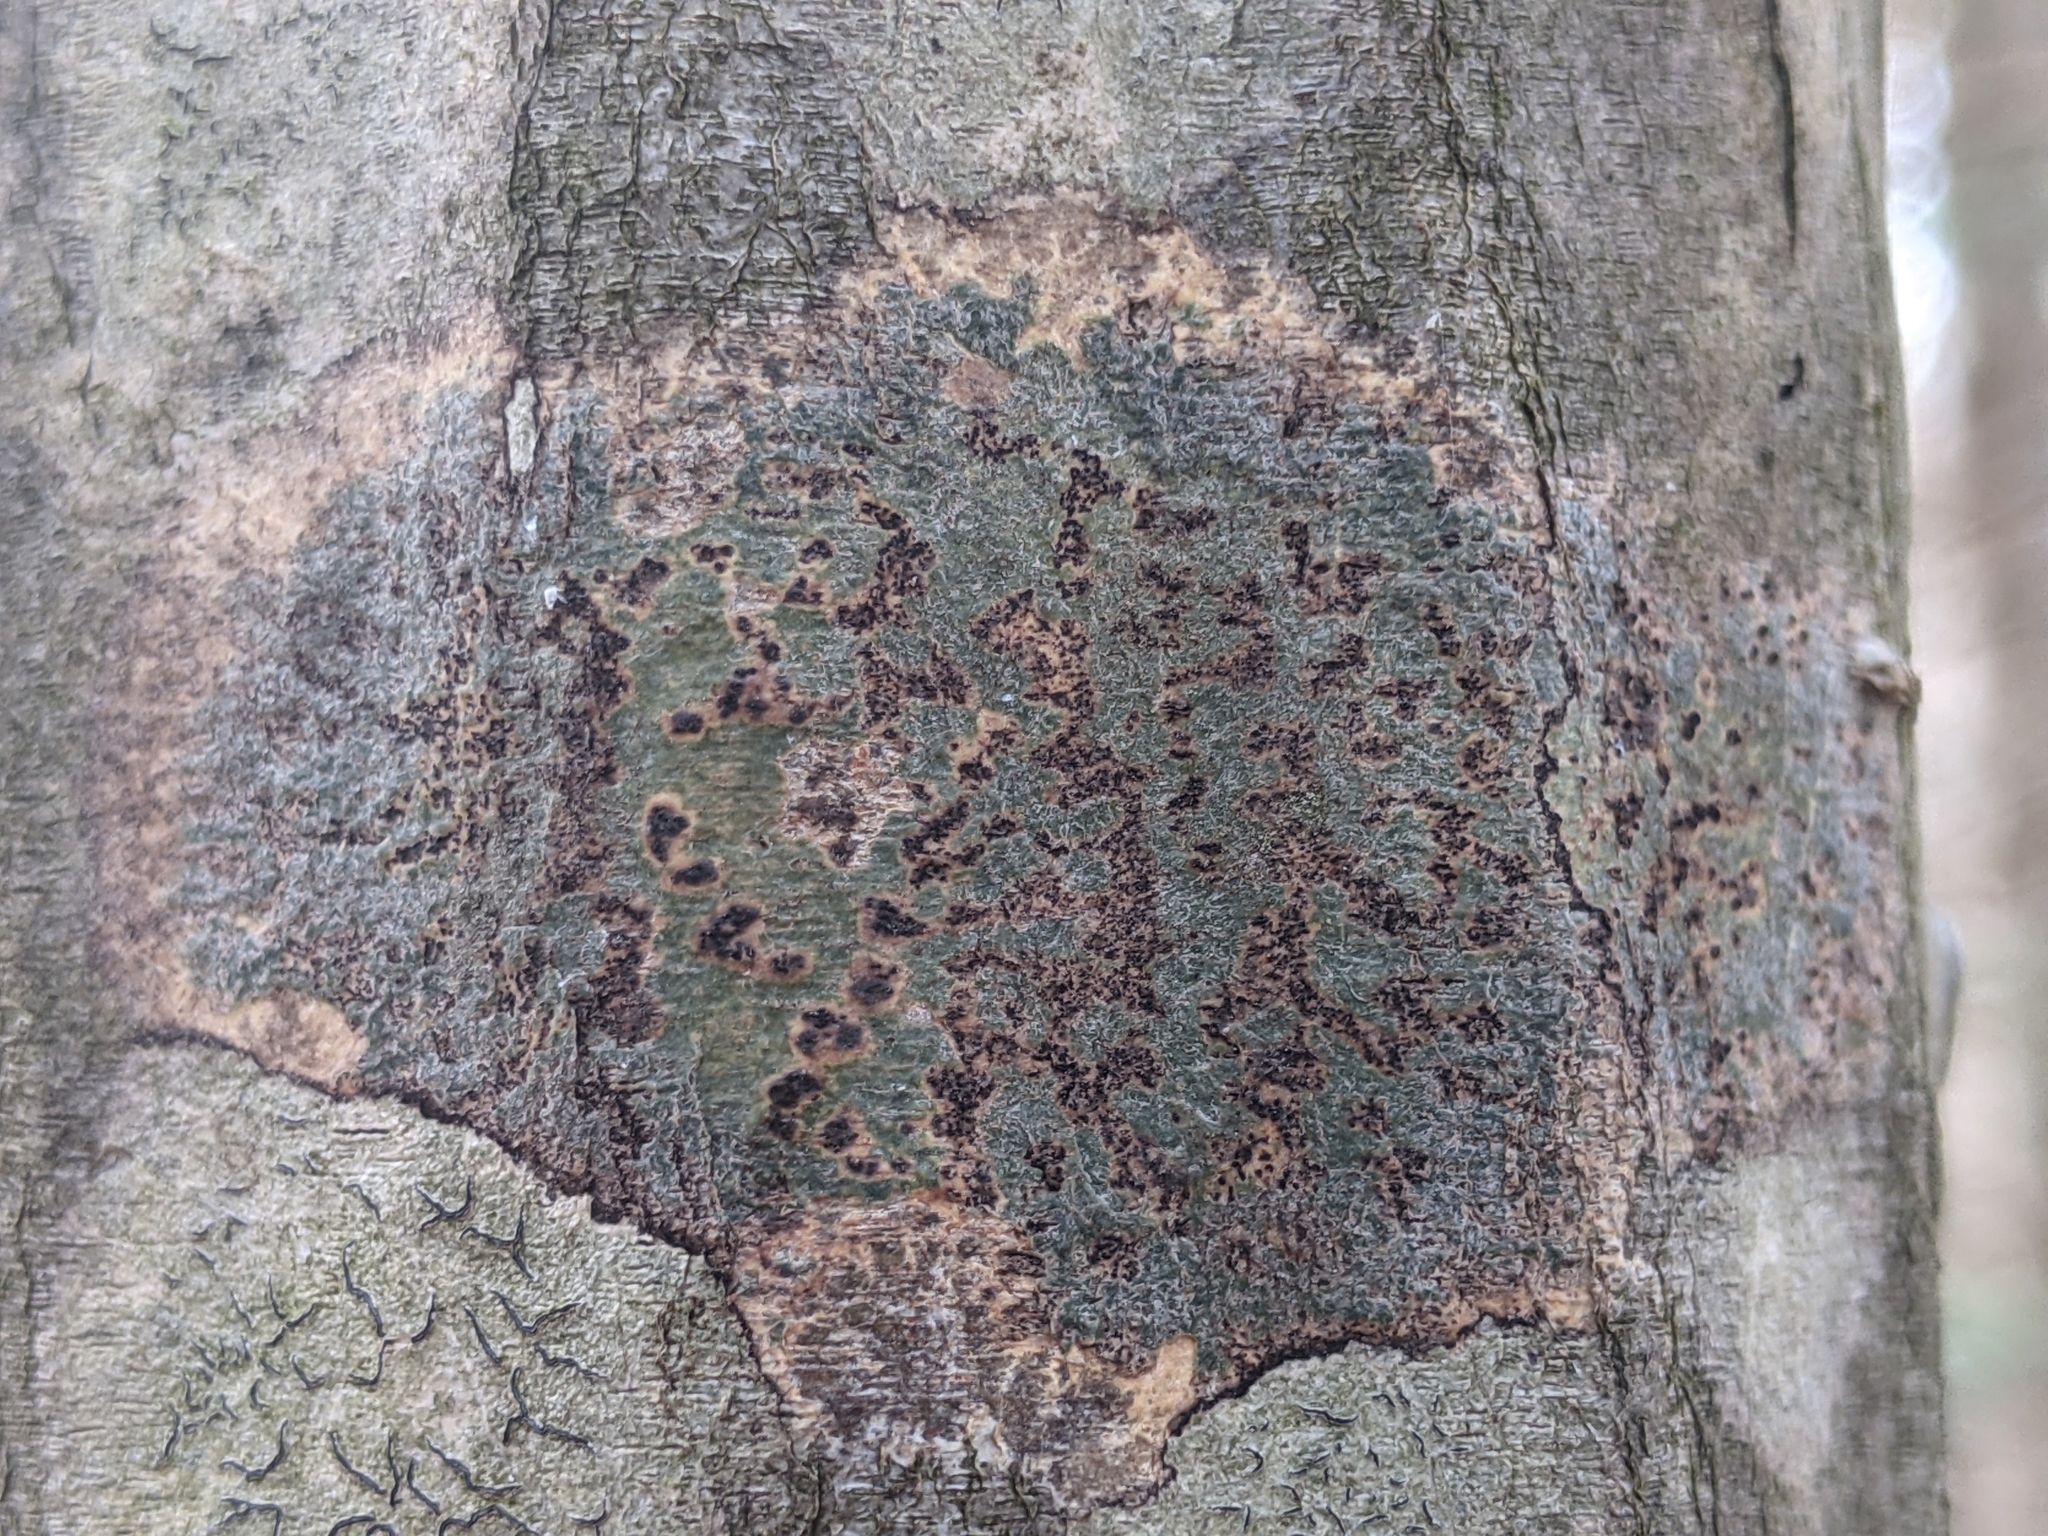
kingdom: Fungi
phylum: Ascomycota
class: Dothideomycetes
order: Trypetheliales
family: Trypetheliaceae
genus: Viridothelium
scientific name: Viridothelium virens
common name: Speckled blister lichen
